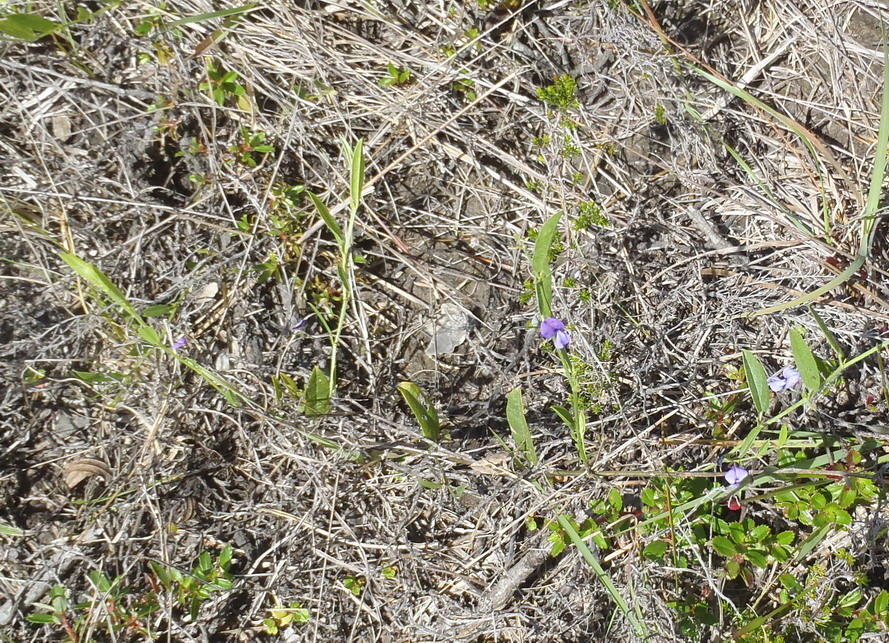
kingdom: Plantae
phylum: Tracheophyta
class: Magnoliopsida
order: Fabales
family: Fabaceae
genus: Psoralea
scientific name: Psoralea plauta
